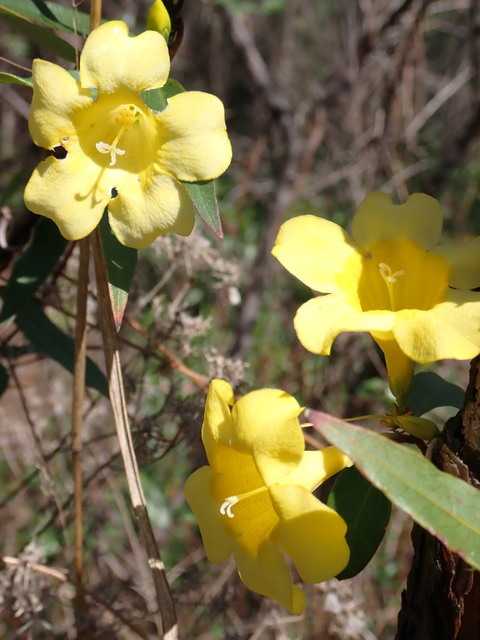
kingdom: Plantae
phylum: Tracheophyta
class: Magnoliopsida
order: Gentianales
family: Gelsemiaceae
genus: Gelsemium
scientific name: Gelsemium sempervirens
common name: Carolina-jasmine
